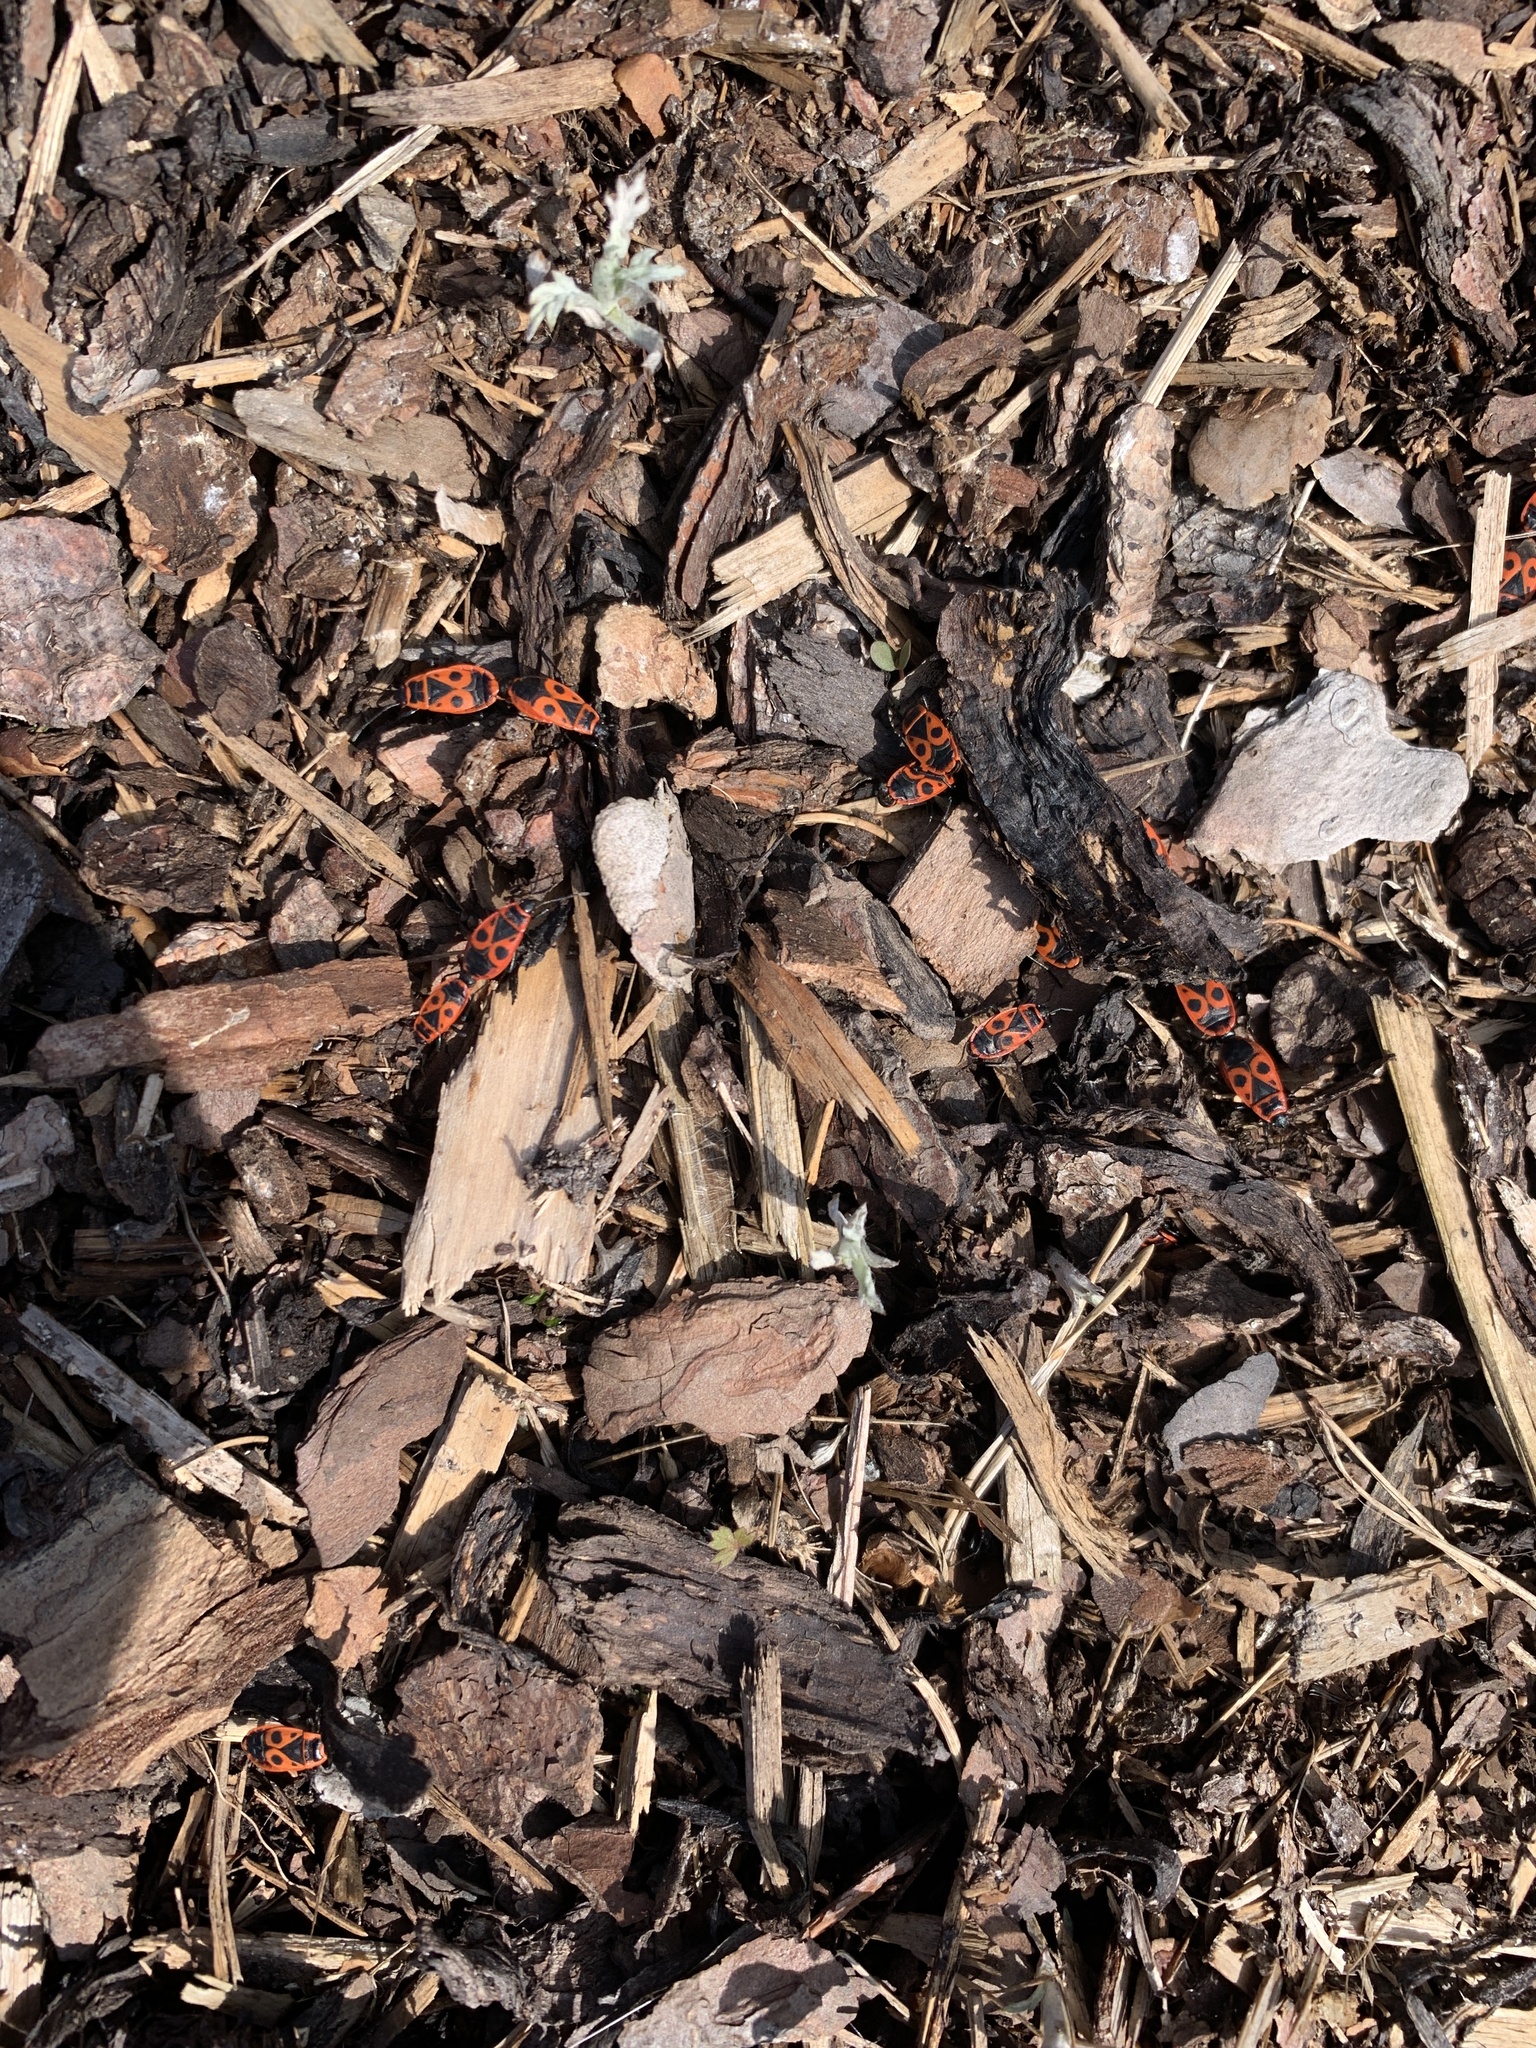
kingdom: Animalia
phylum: Arthropoda
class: Insecta
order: Hemiptera
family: Pyrrhocoridae
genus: Pyrrhocoris
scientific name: Pyrrhocoris apterus
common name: Firebug
